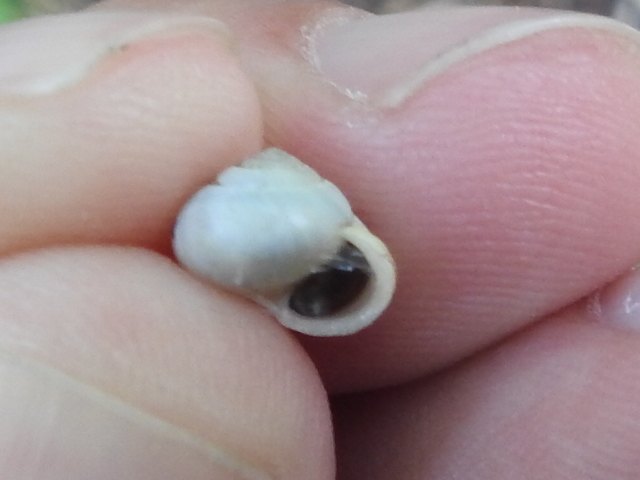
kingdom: Animalia
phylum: Mollusca
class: Gastropoda
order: Cycloneritida
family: Helicinidae
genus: Helicina
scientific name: Helicina orbiculata
